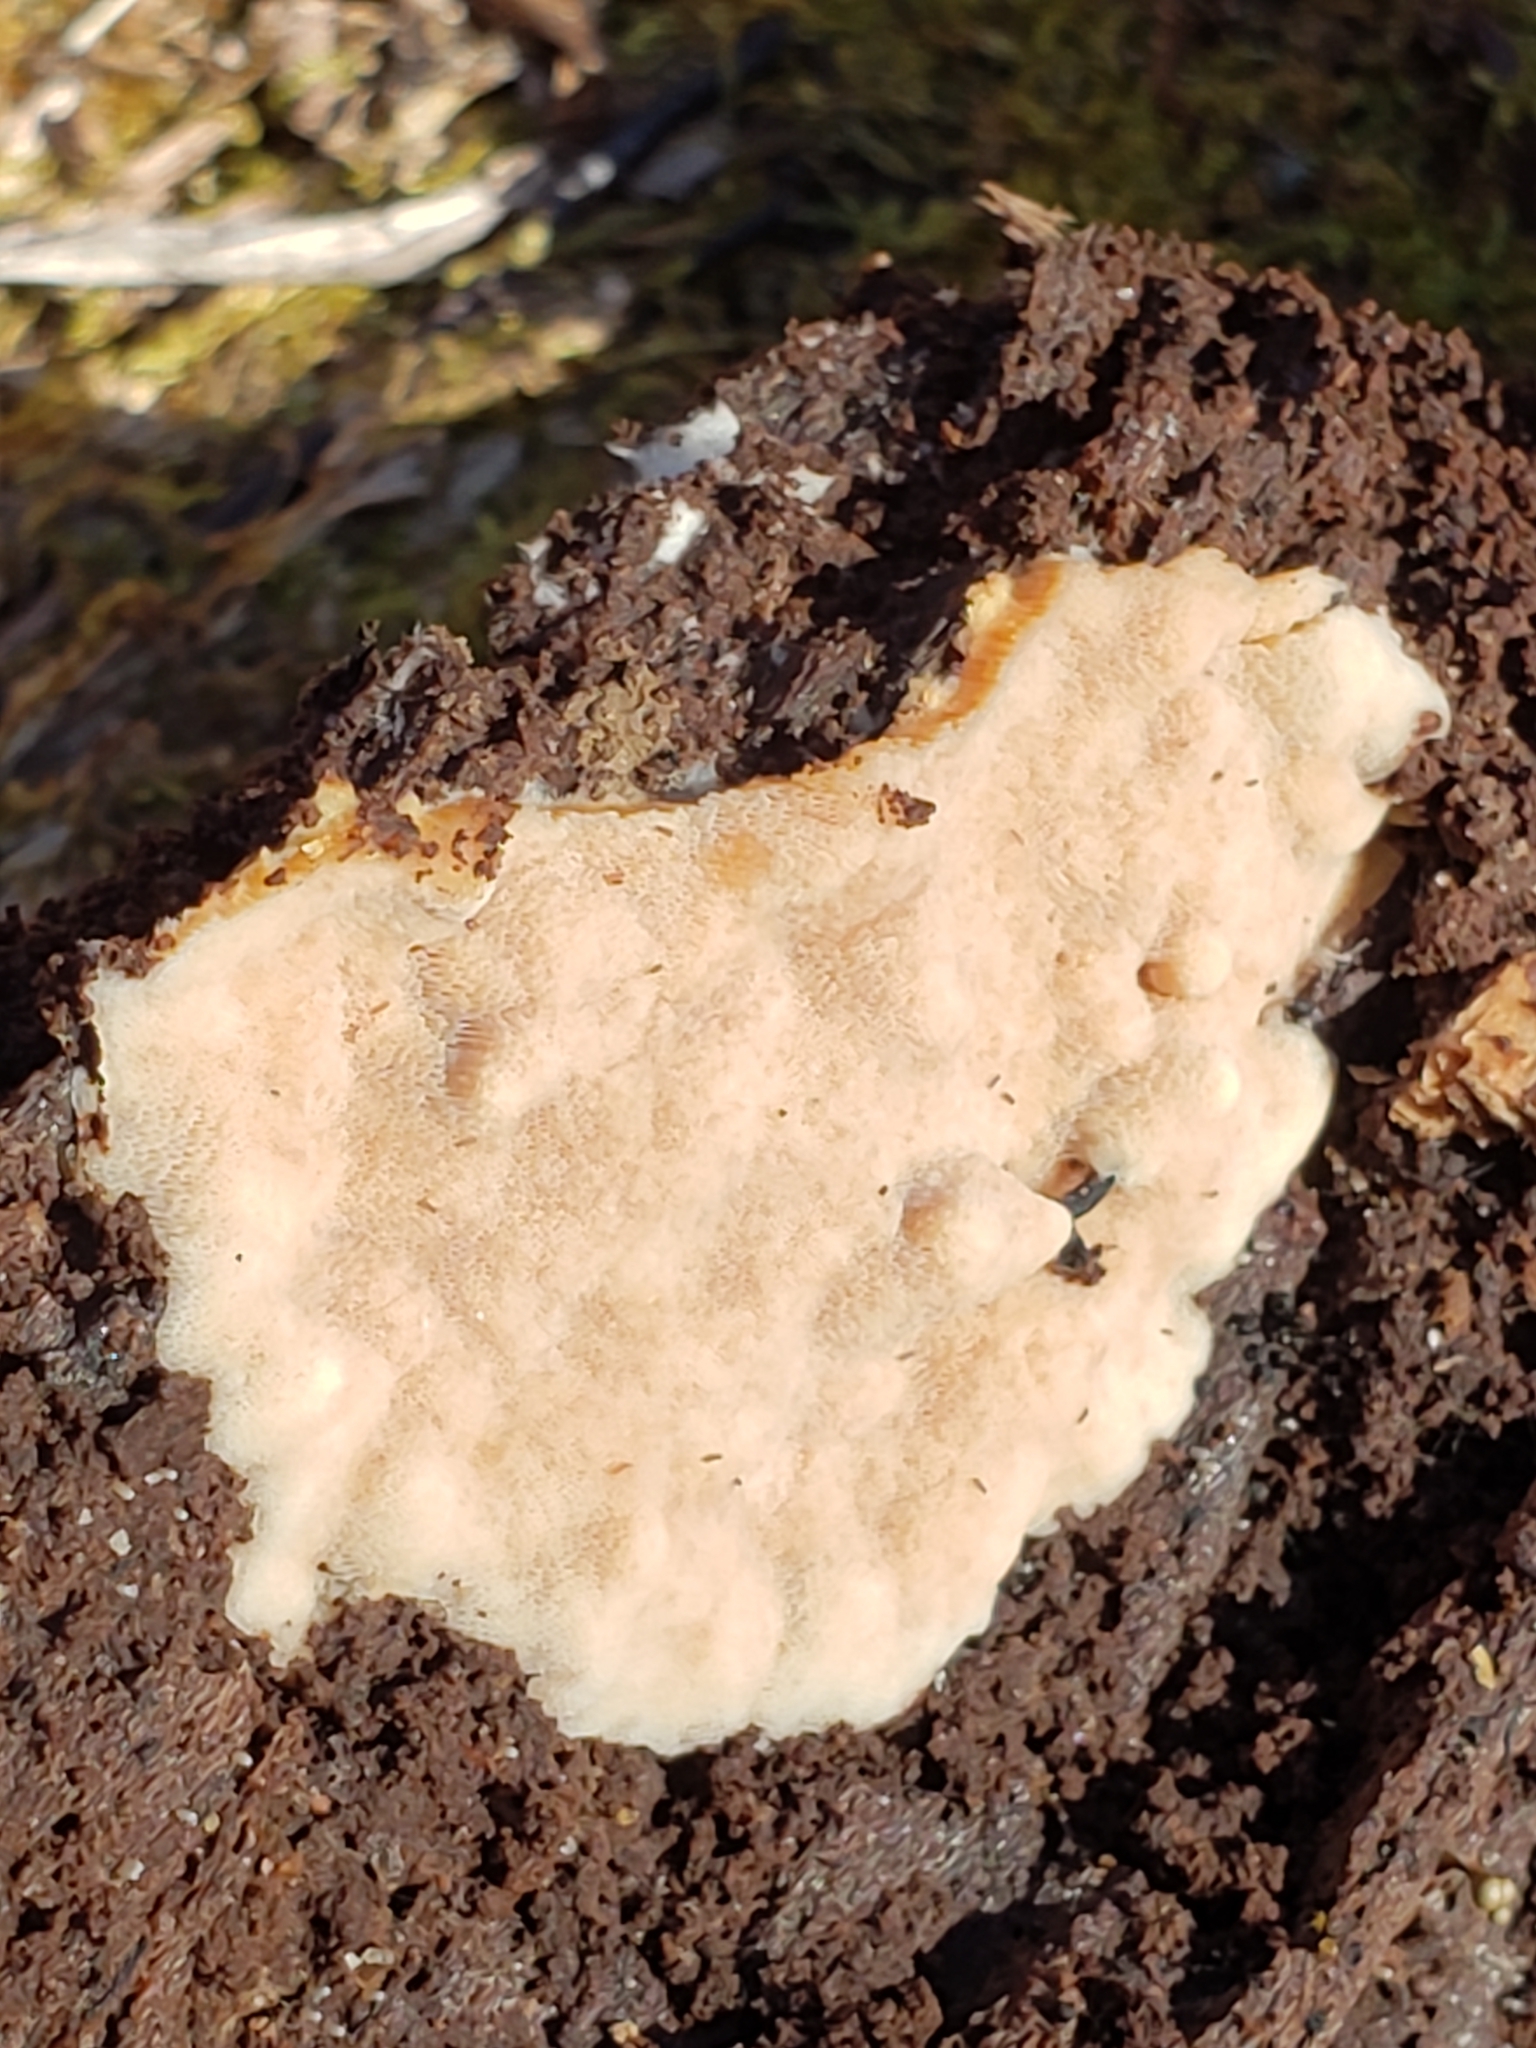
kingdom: Fungi
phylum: Basidiomycota
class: Agaricomycetes
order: Polyporales
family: Meripilaceae
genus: Rigidoporus
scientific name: Rigidoporus crocatus
